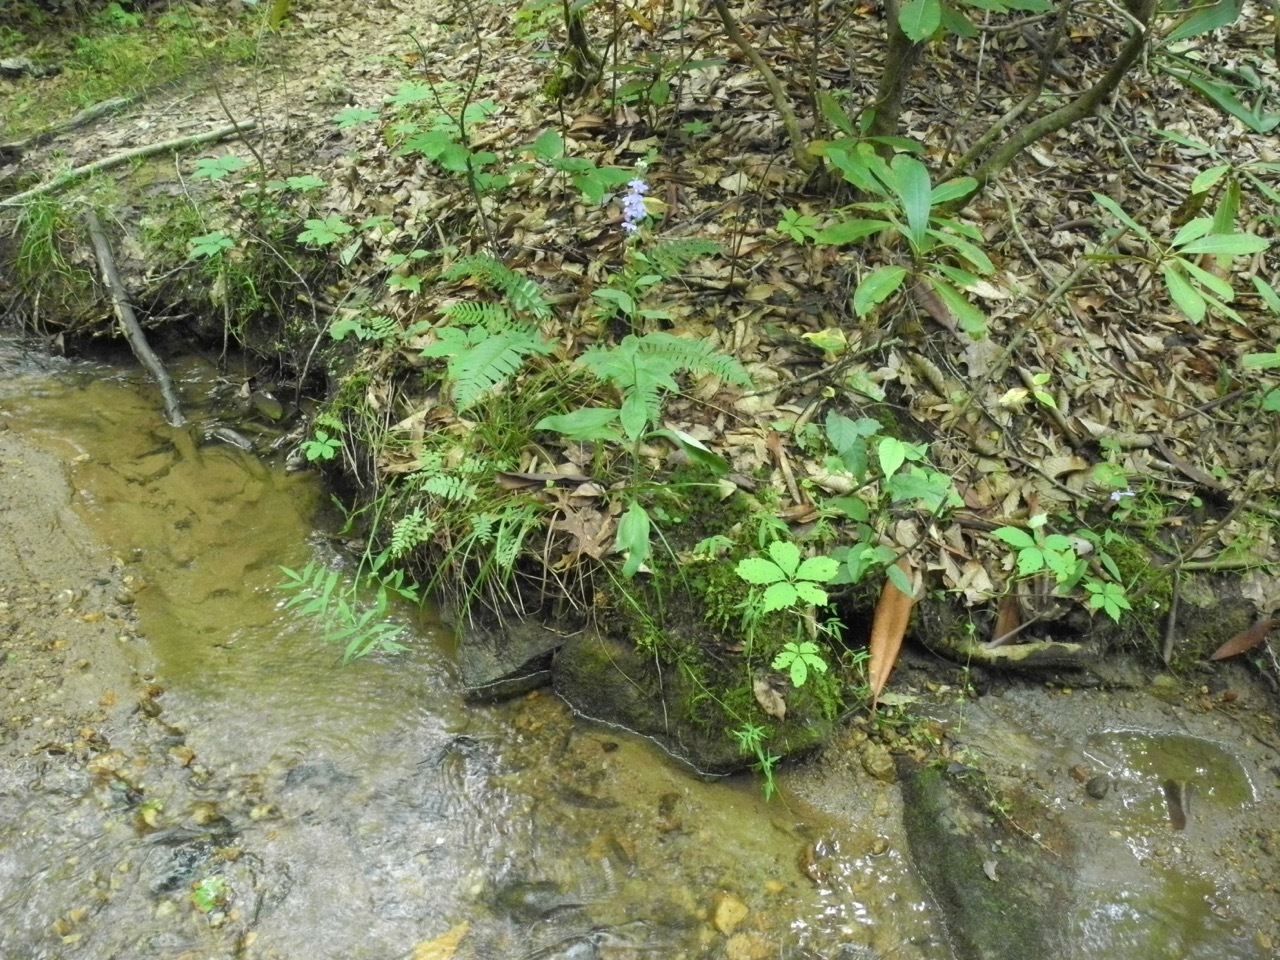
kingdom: Plantae
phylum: Tracheophyta
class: Magnoliopsida
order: Asterales
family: Campanulaceae
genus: Lobelia
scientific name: Lobelia amoena
